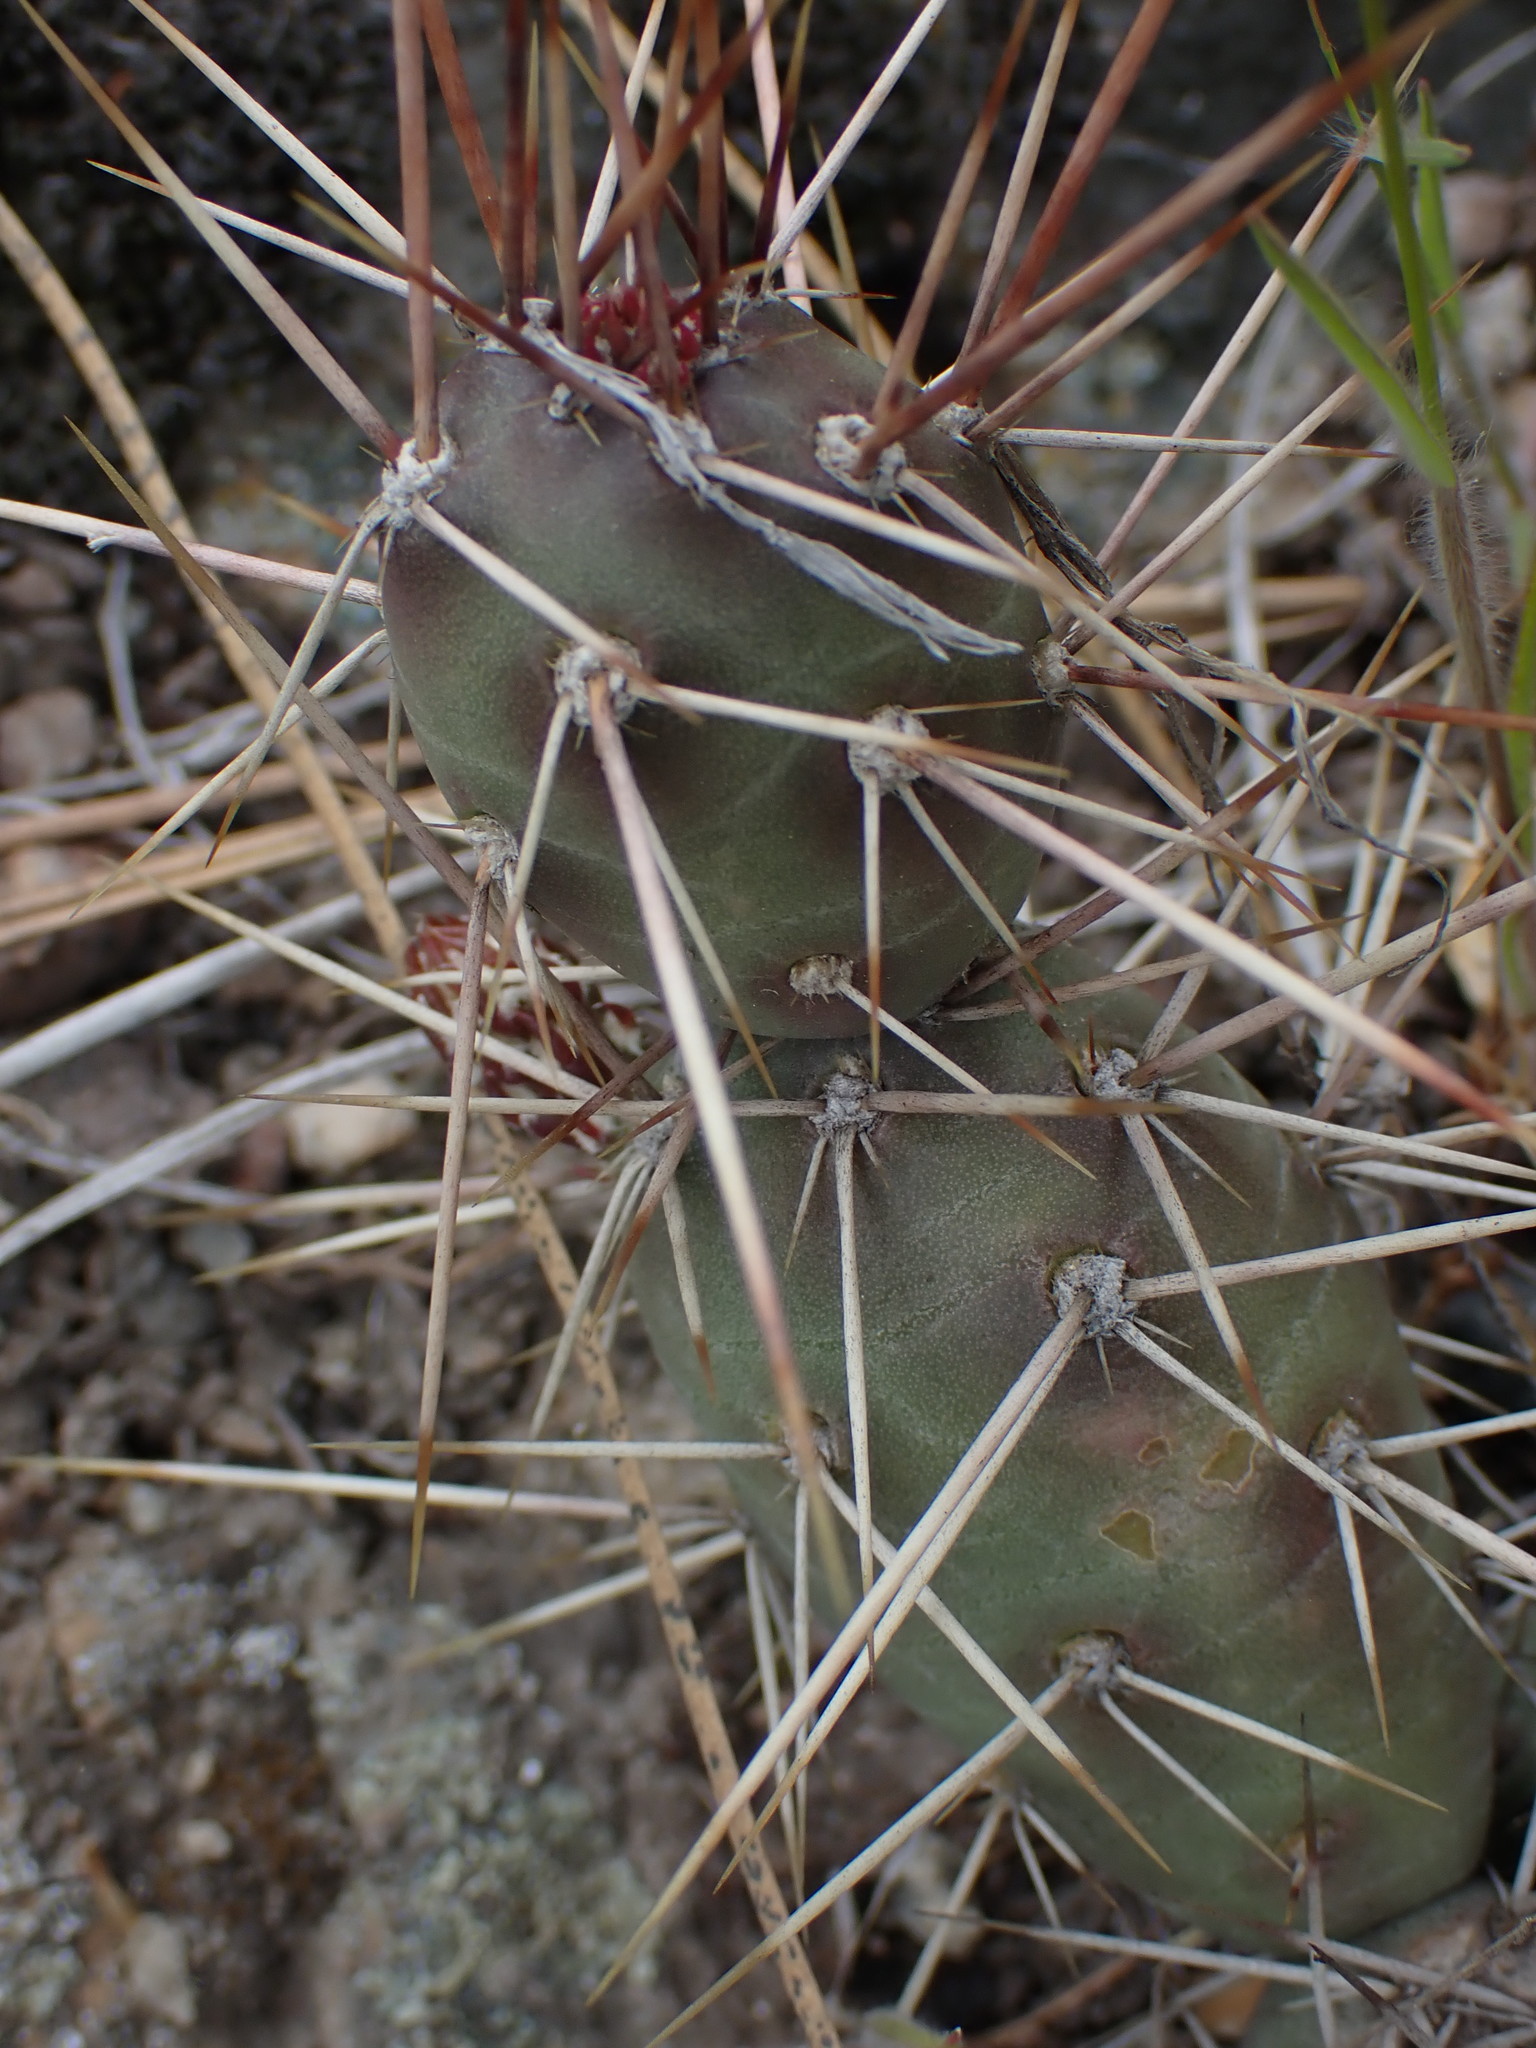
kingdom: Plantae
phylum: Tracheophyta
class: Magnoliopsida
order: Caryophyllales
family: Cactaceae
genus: Opuntia
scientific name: Opuntia fragilis
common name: Brittle cactus
